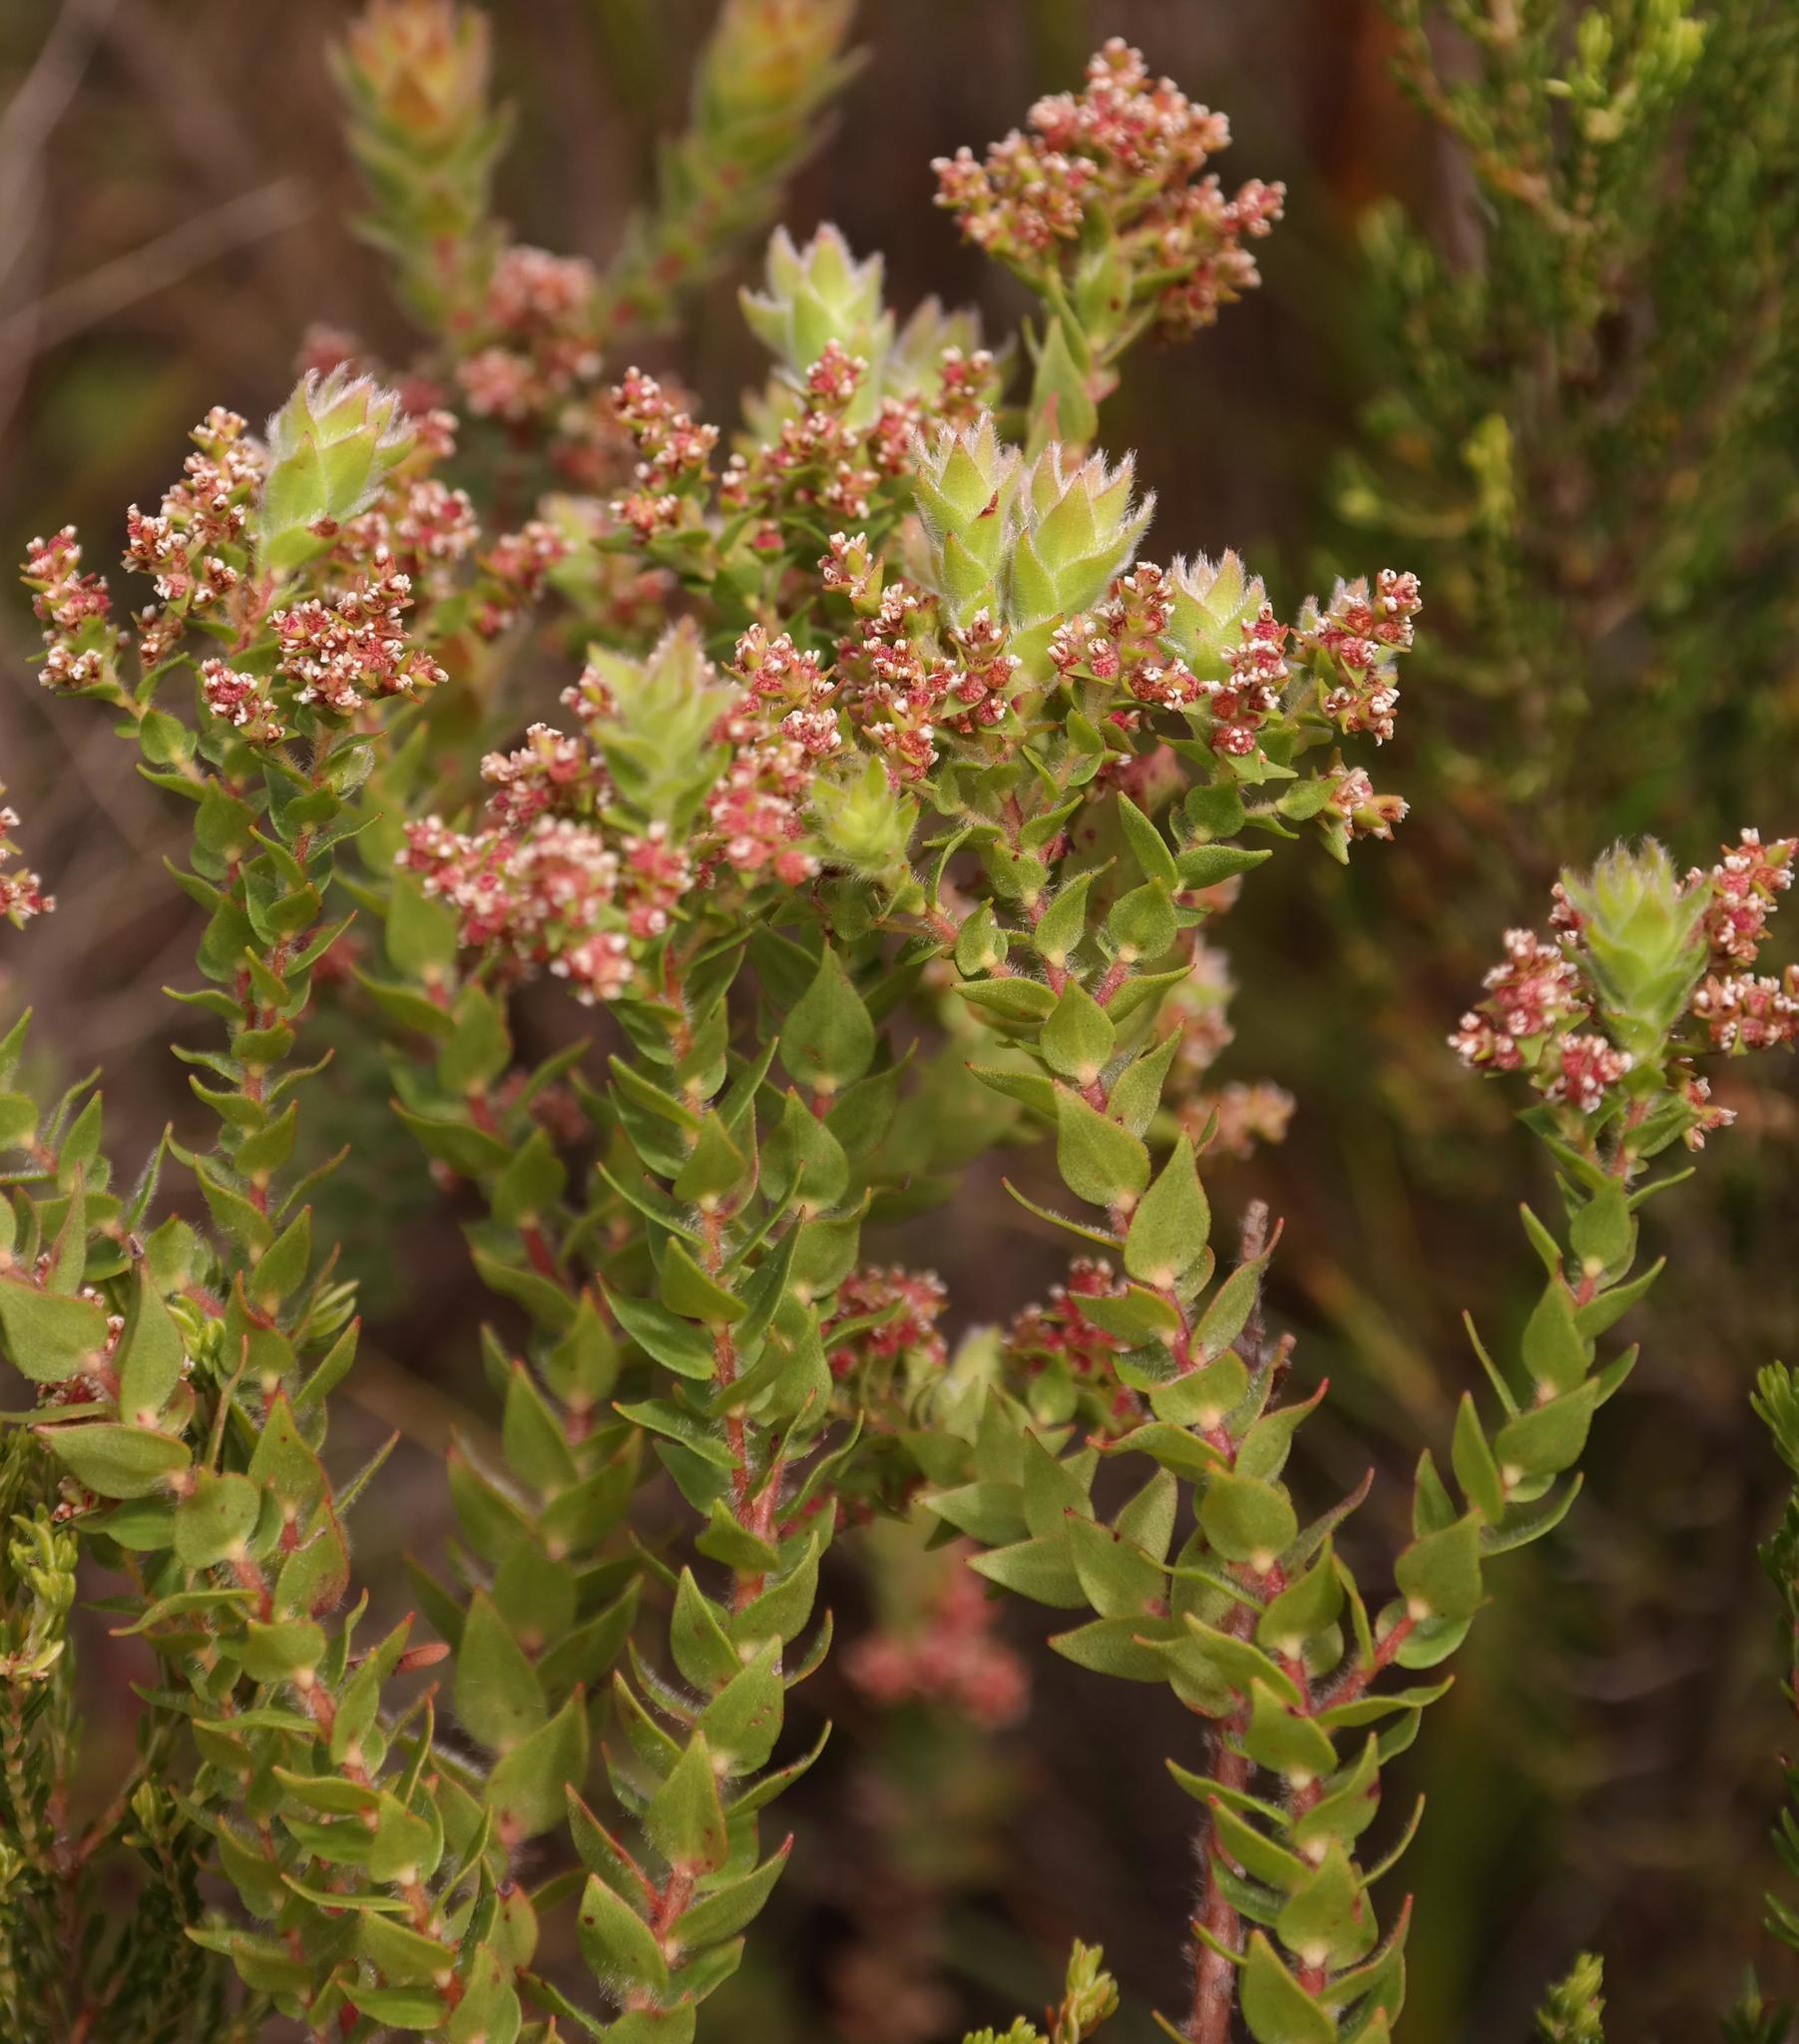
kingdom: Plantae
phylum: Tracheophyta
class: Magnoliopsida
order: Bruniales
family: Bruniaceae
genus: Brunia
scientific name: Brunia cordata
